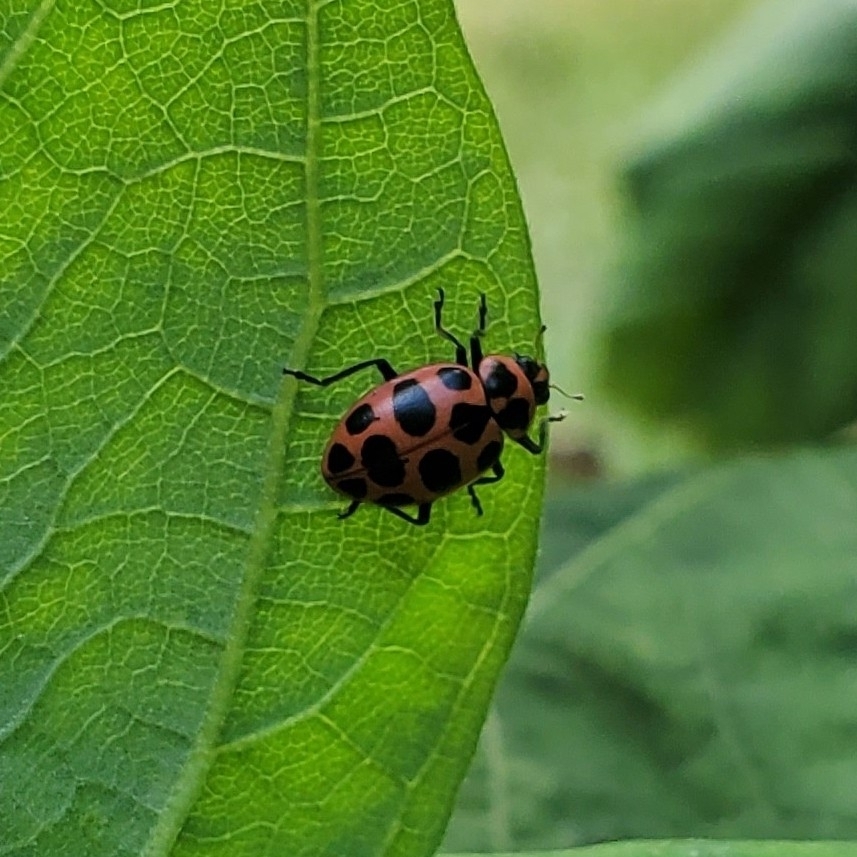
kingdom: Animalia
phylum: Arthropoda
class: Insecta
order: Coleoptera
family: Coccinellidae
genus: Coleomegilla
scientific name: Coleomegilla maculata
